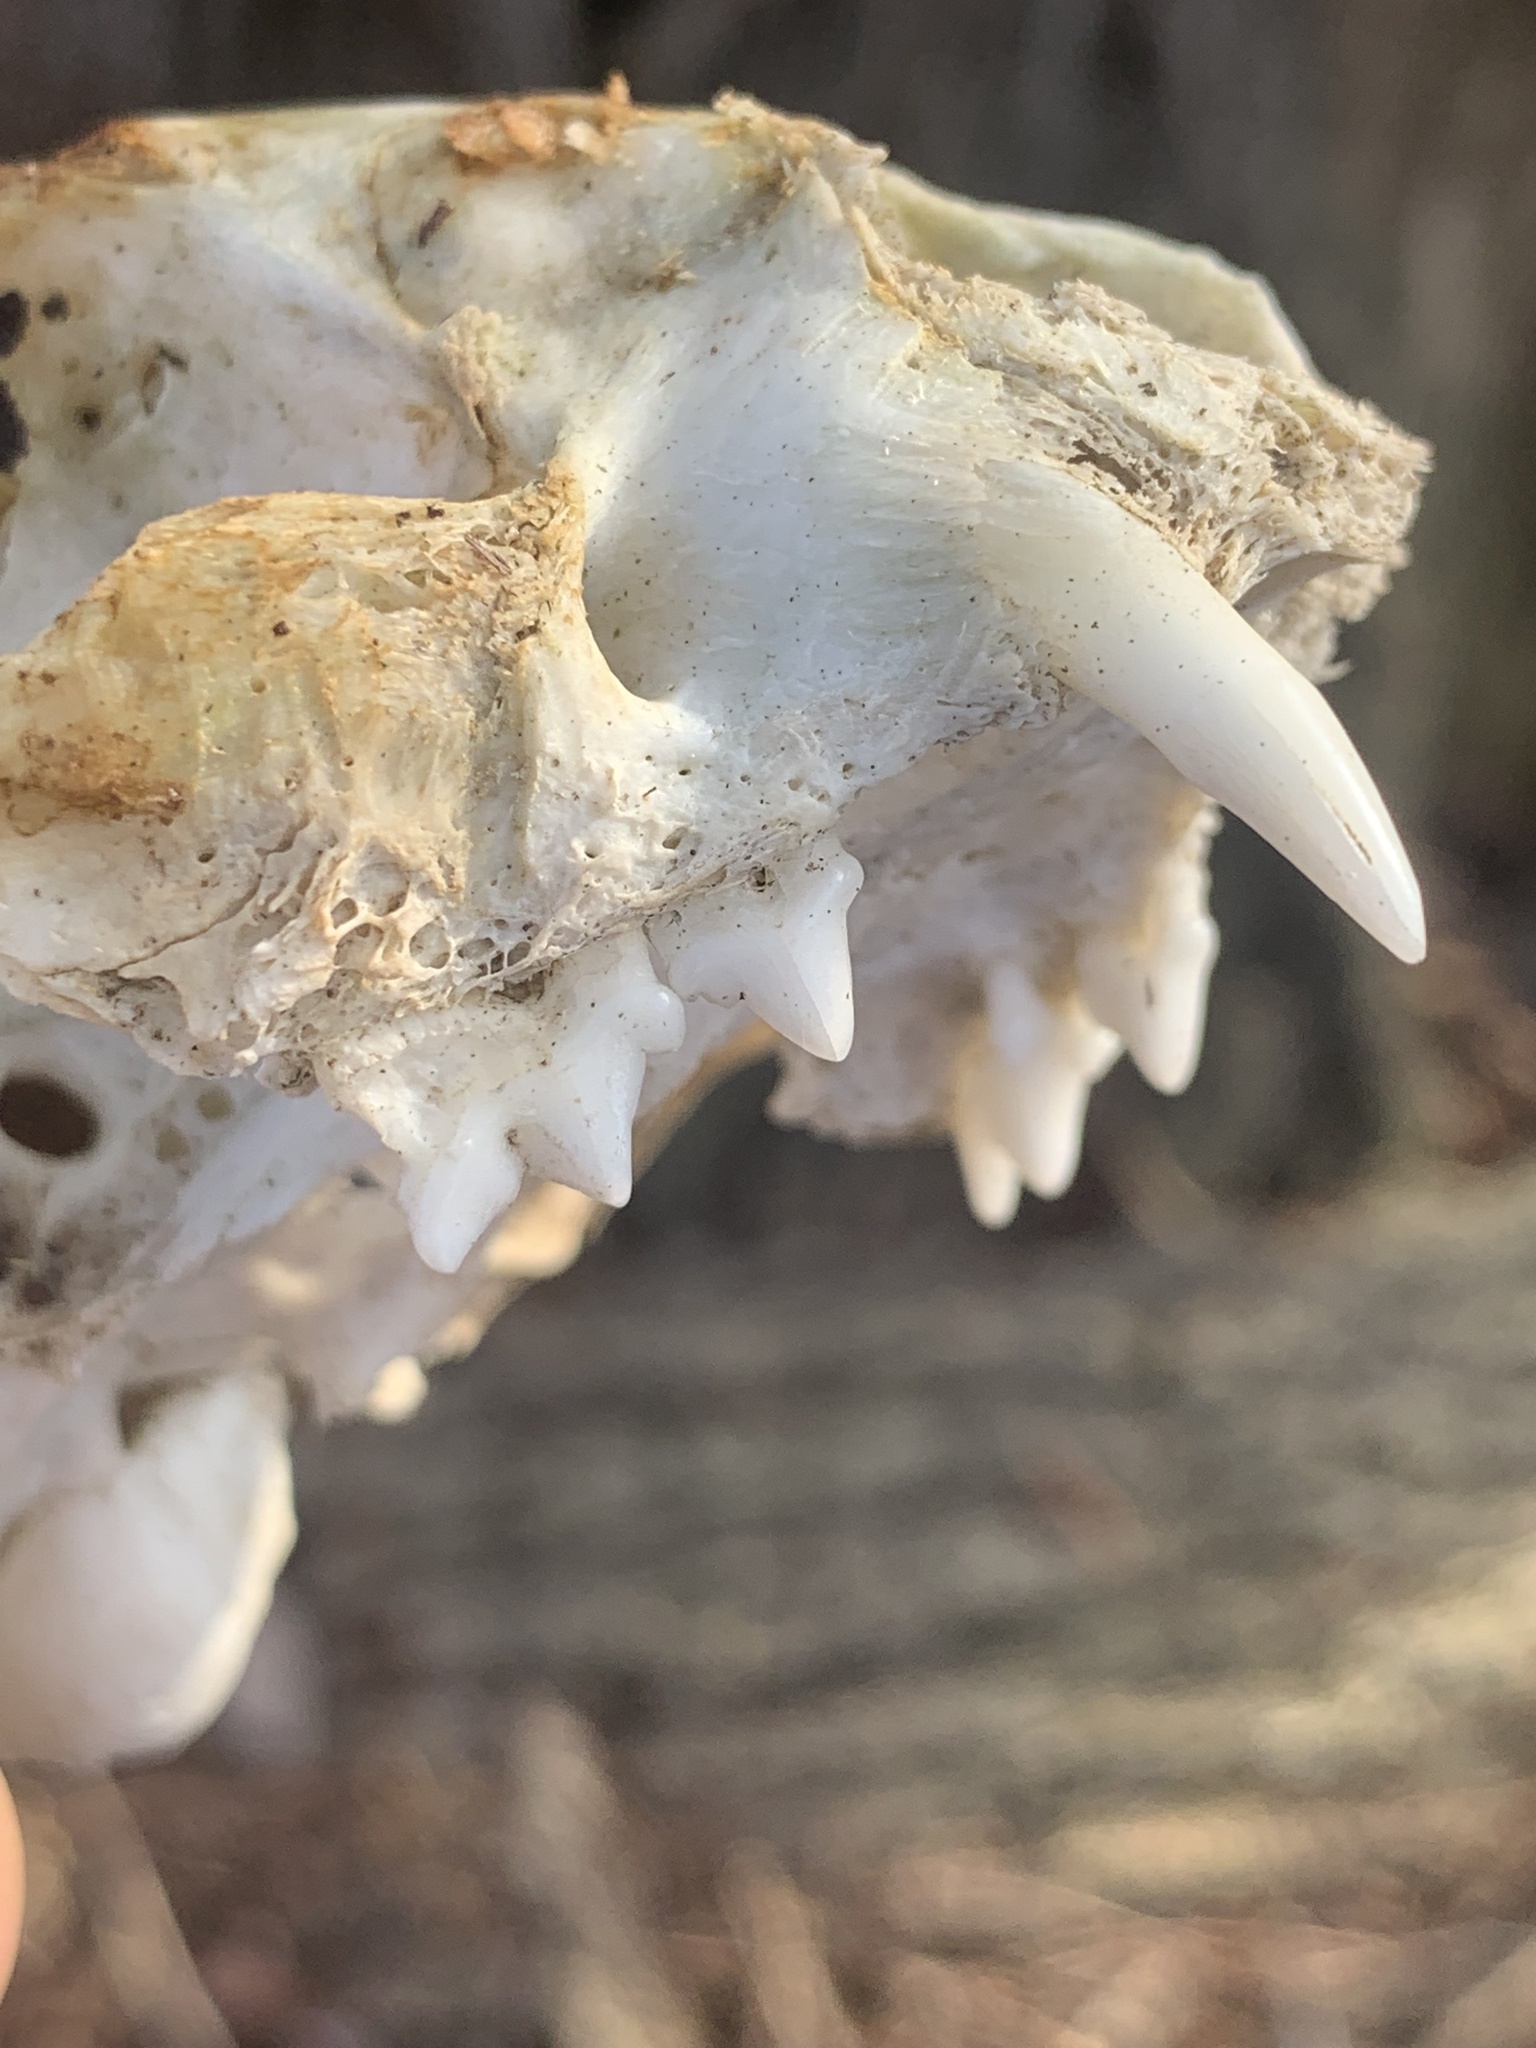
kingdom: Animalia
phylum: Chordata
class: Mammalia
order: Carnivora
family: Felidae
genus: Felis
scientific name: Felis catus
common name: Domestic cat
